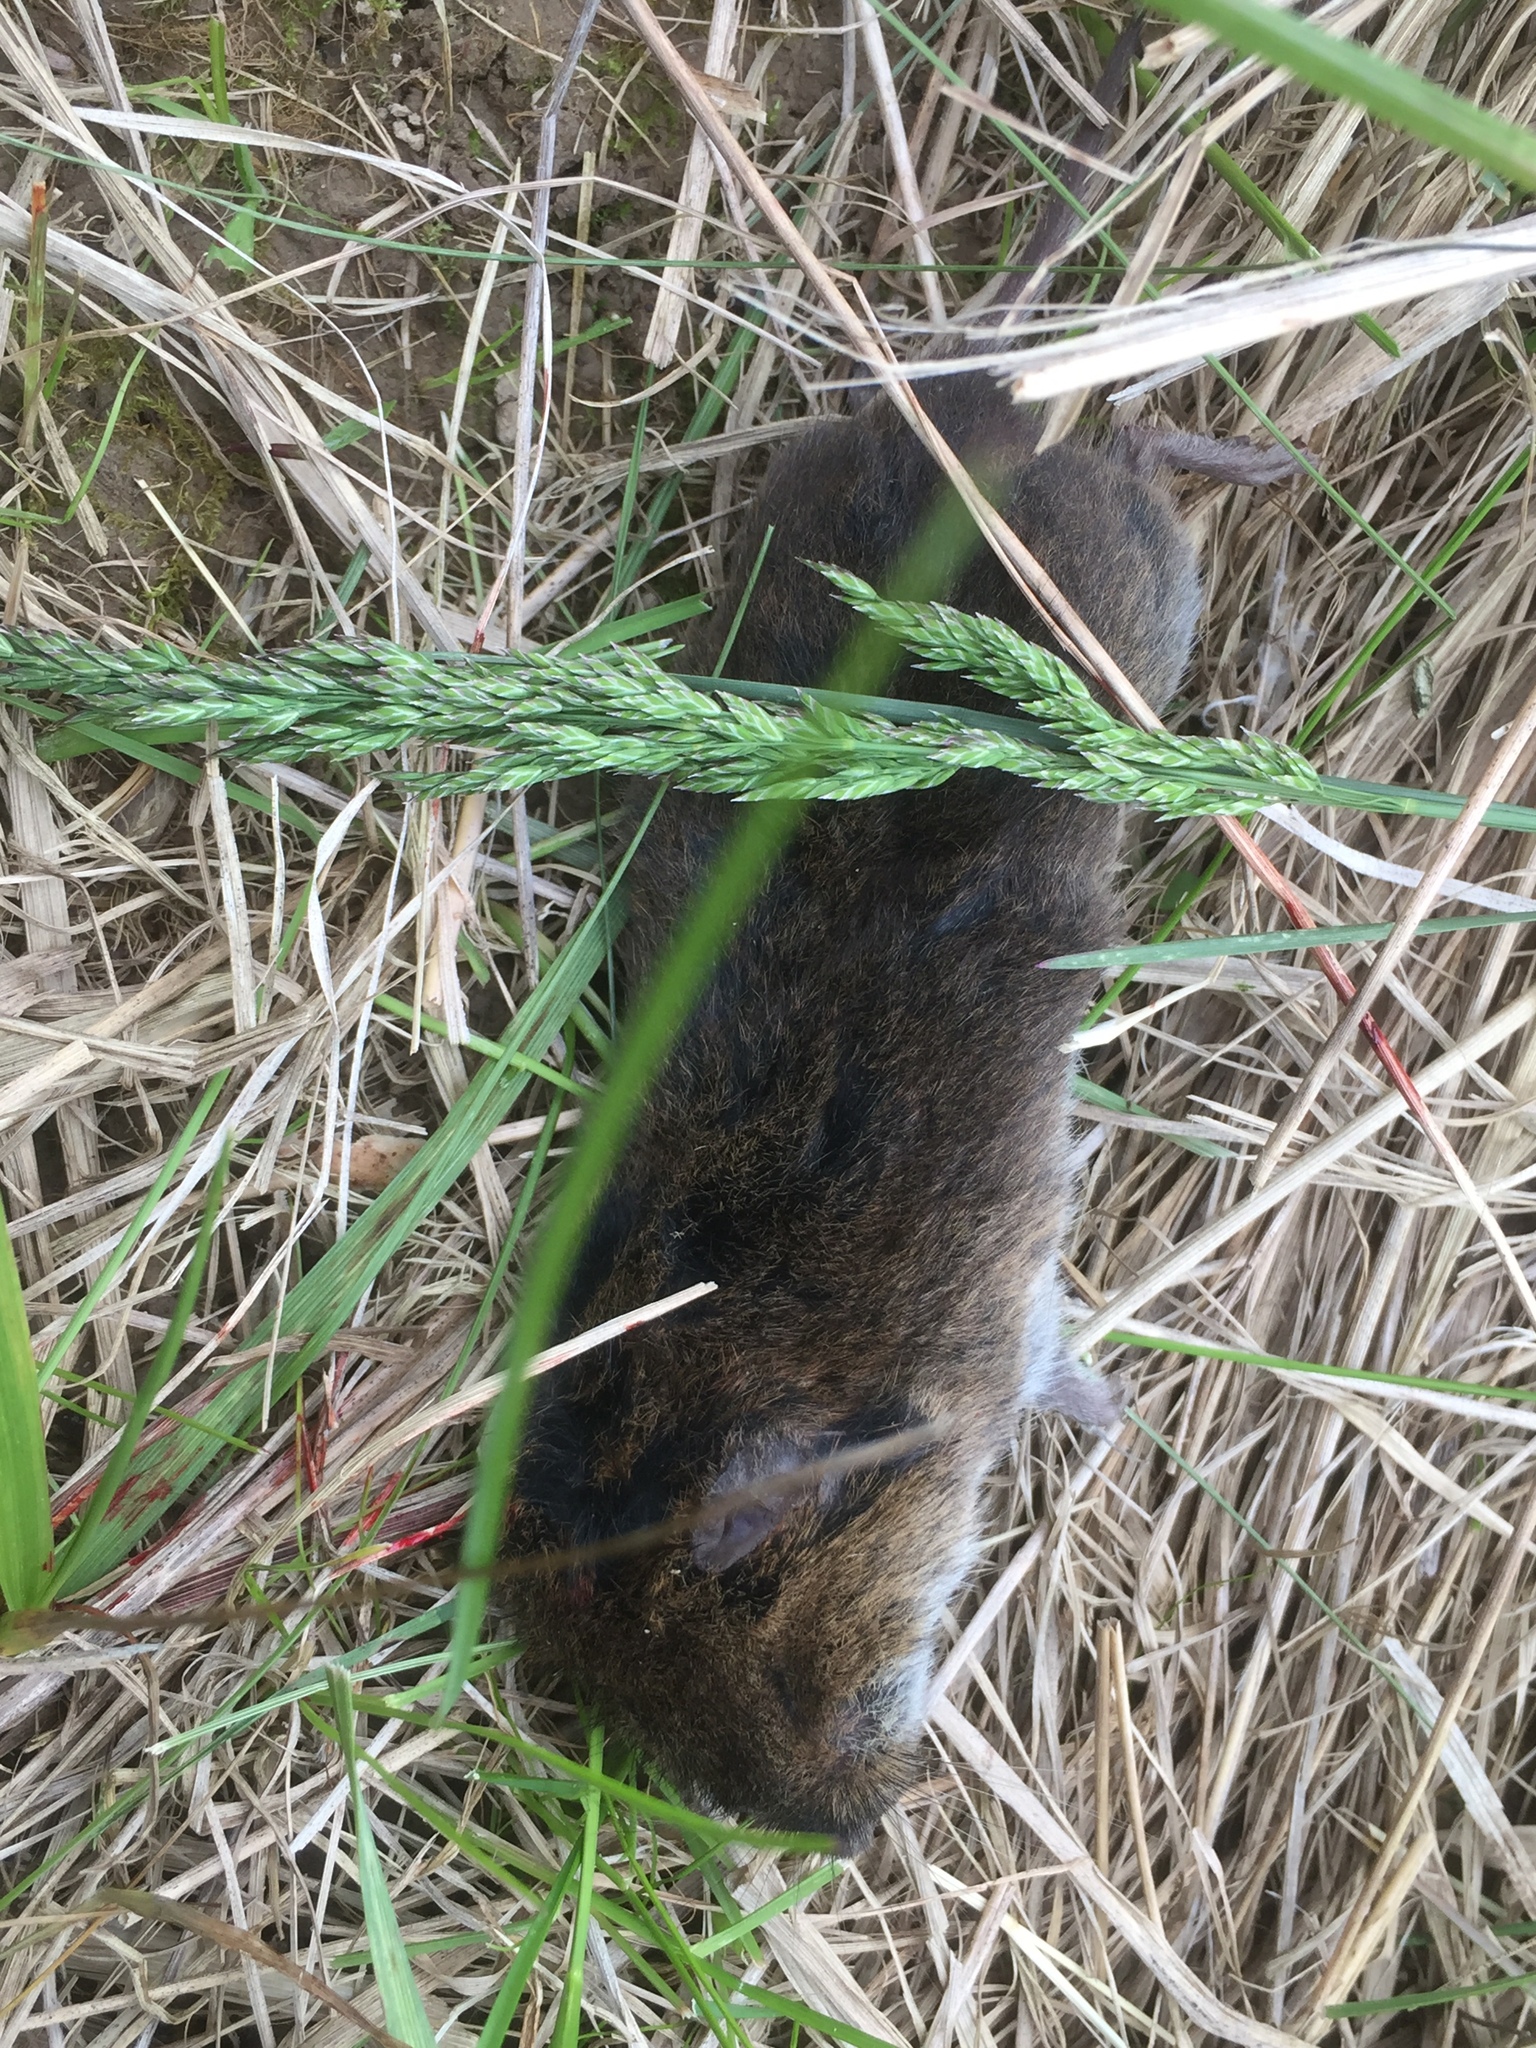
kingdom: Animalia
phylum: Chordata
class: Mammalia
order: Rodentia
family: Cricetidae
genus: Microtus
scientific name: Microtus pennsylvanicus
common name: Meadow vole
